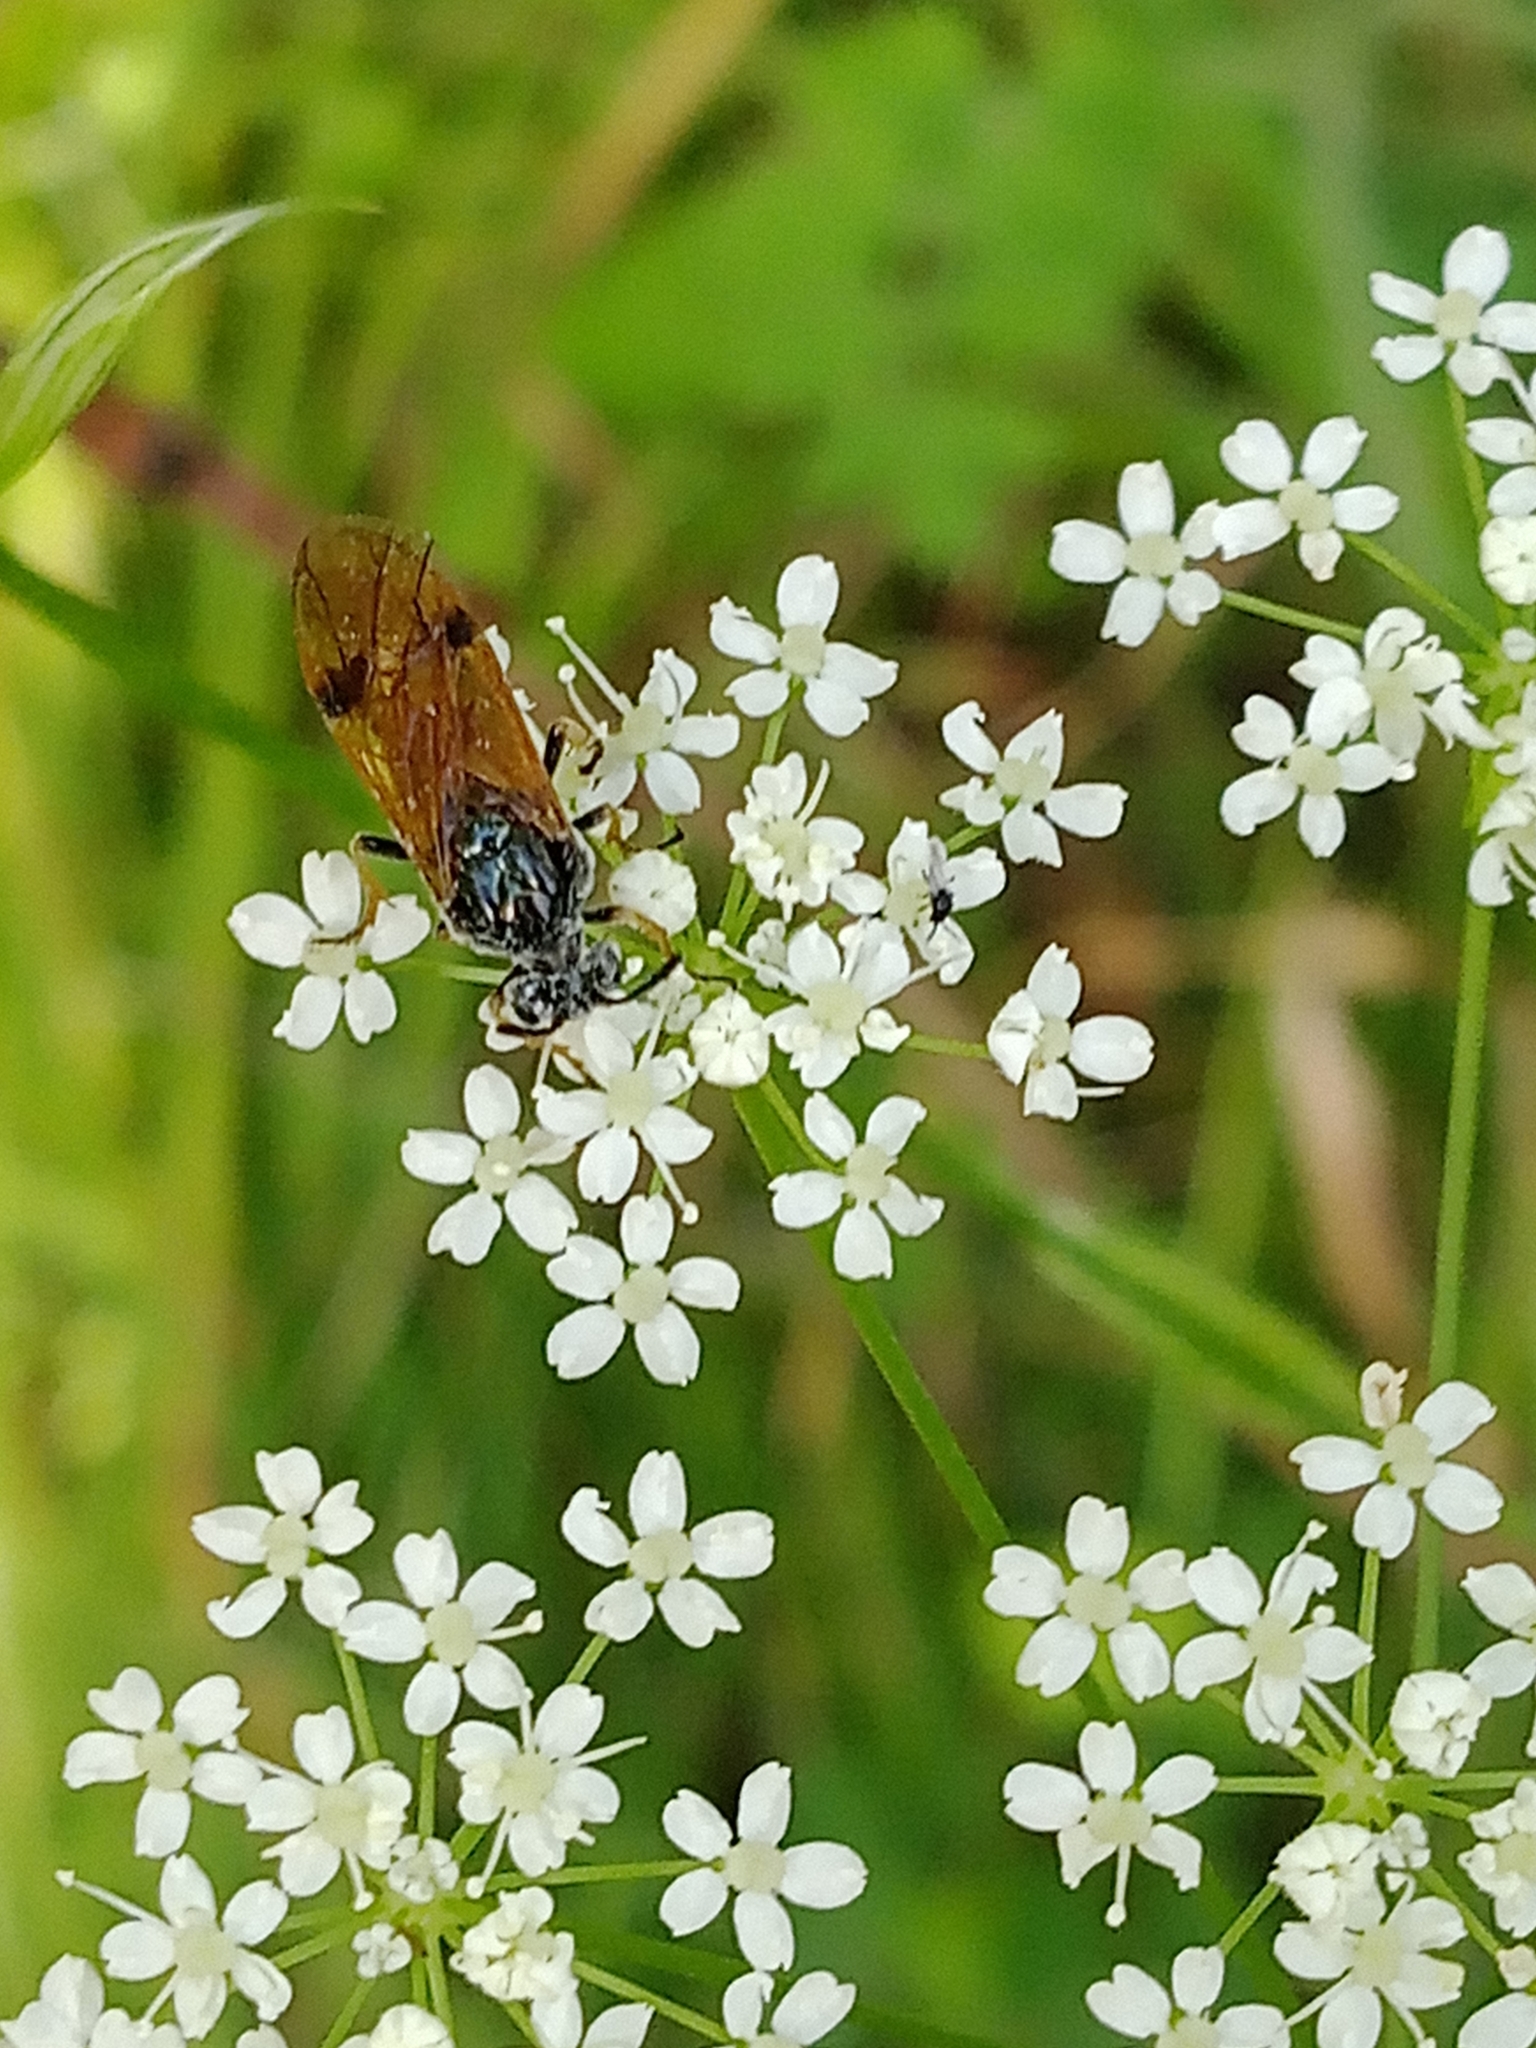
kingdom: Animalia
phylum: Arthropoda
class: Insecta
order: Hymenoptera
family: Argidae
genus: Arge
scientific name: Arge ustulata
